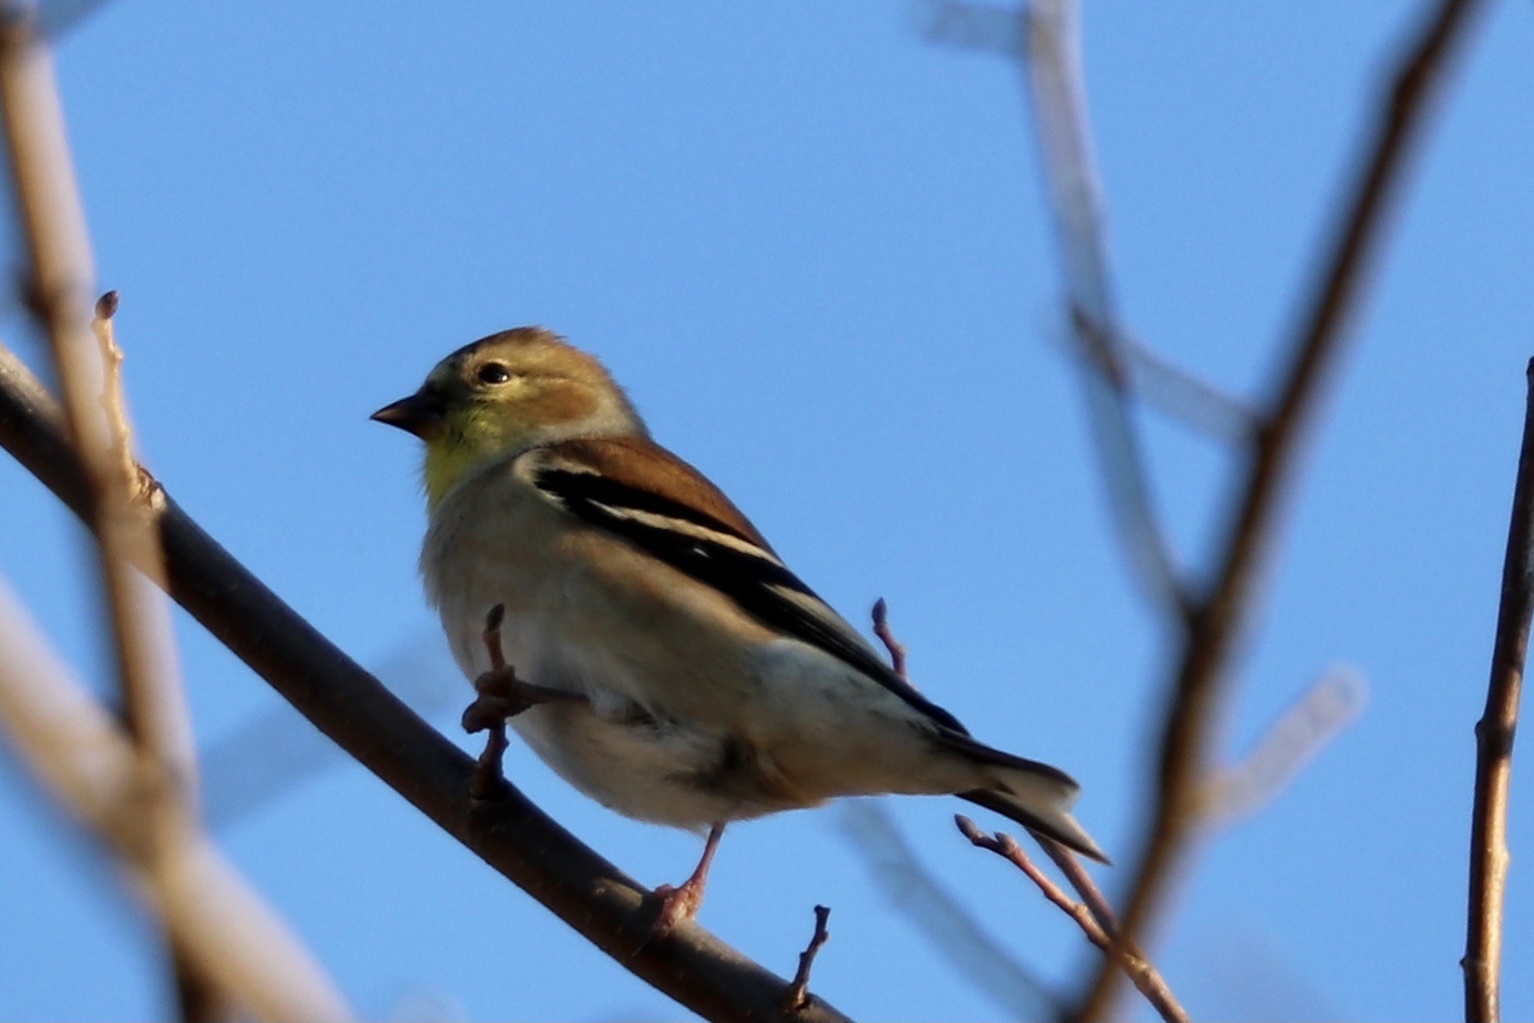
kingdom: Animalia
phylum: Chordata
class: Aves
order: Passeriformes
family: Fringillidae
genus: Spinus
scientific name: Spinus tristis
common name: American goldfinch
